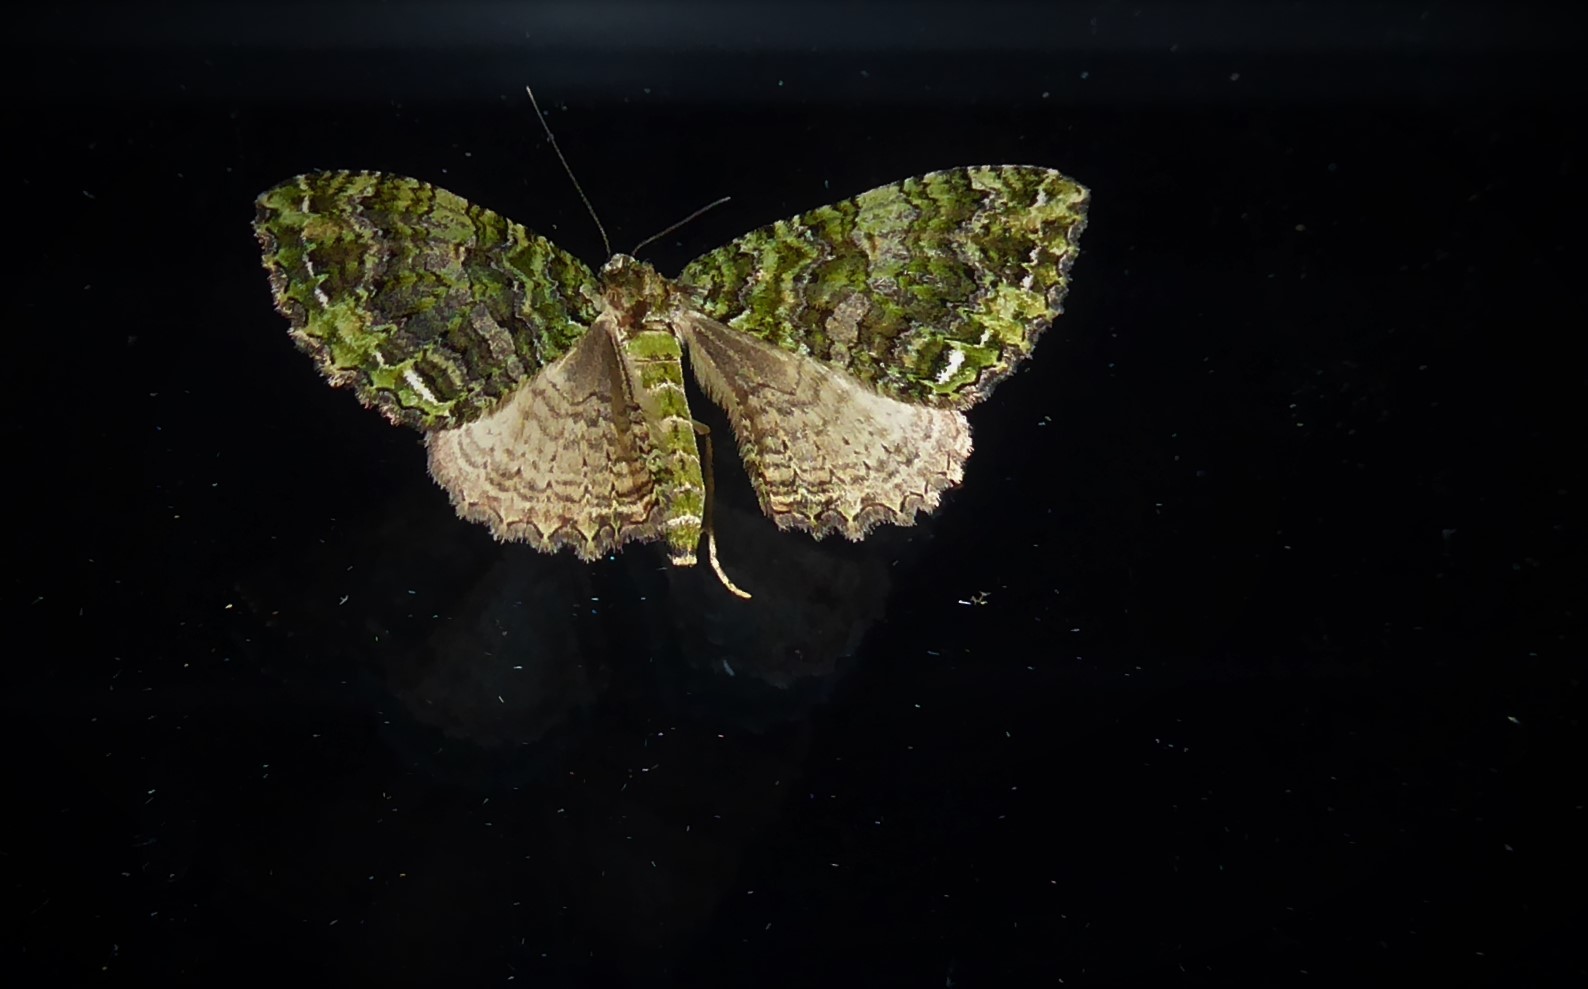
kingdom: Animalia
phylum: Arthropoda
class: Insecta
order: Lepidoptera
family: Geometridae
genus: Austrocidaria
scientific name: Austrocidaria similata
